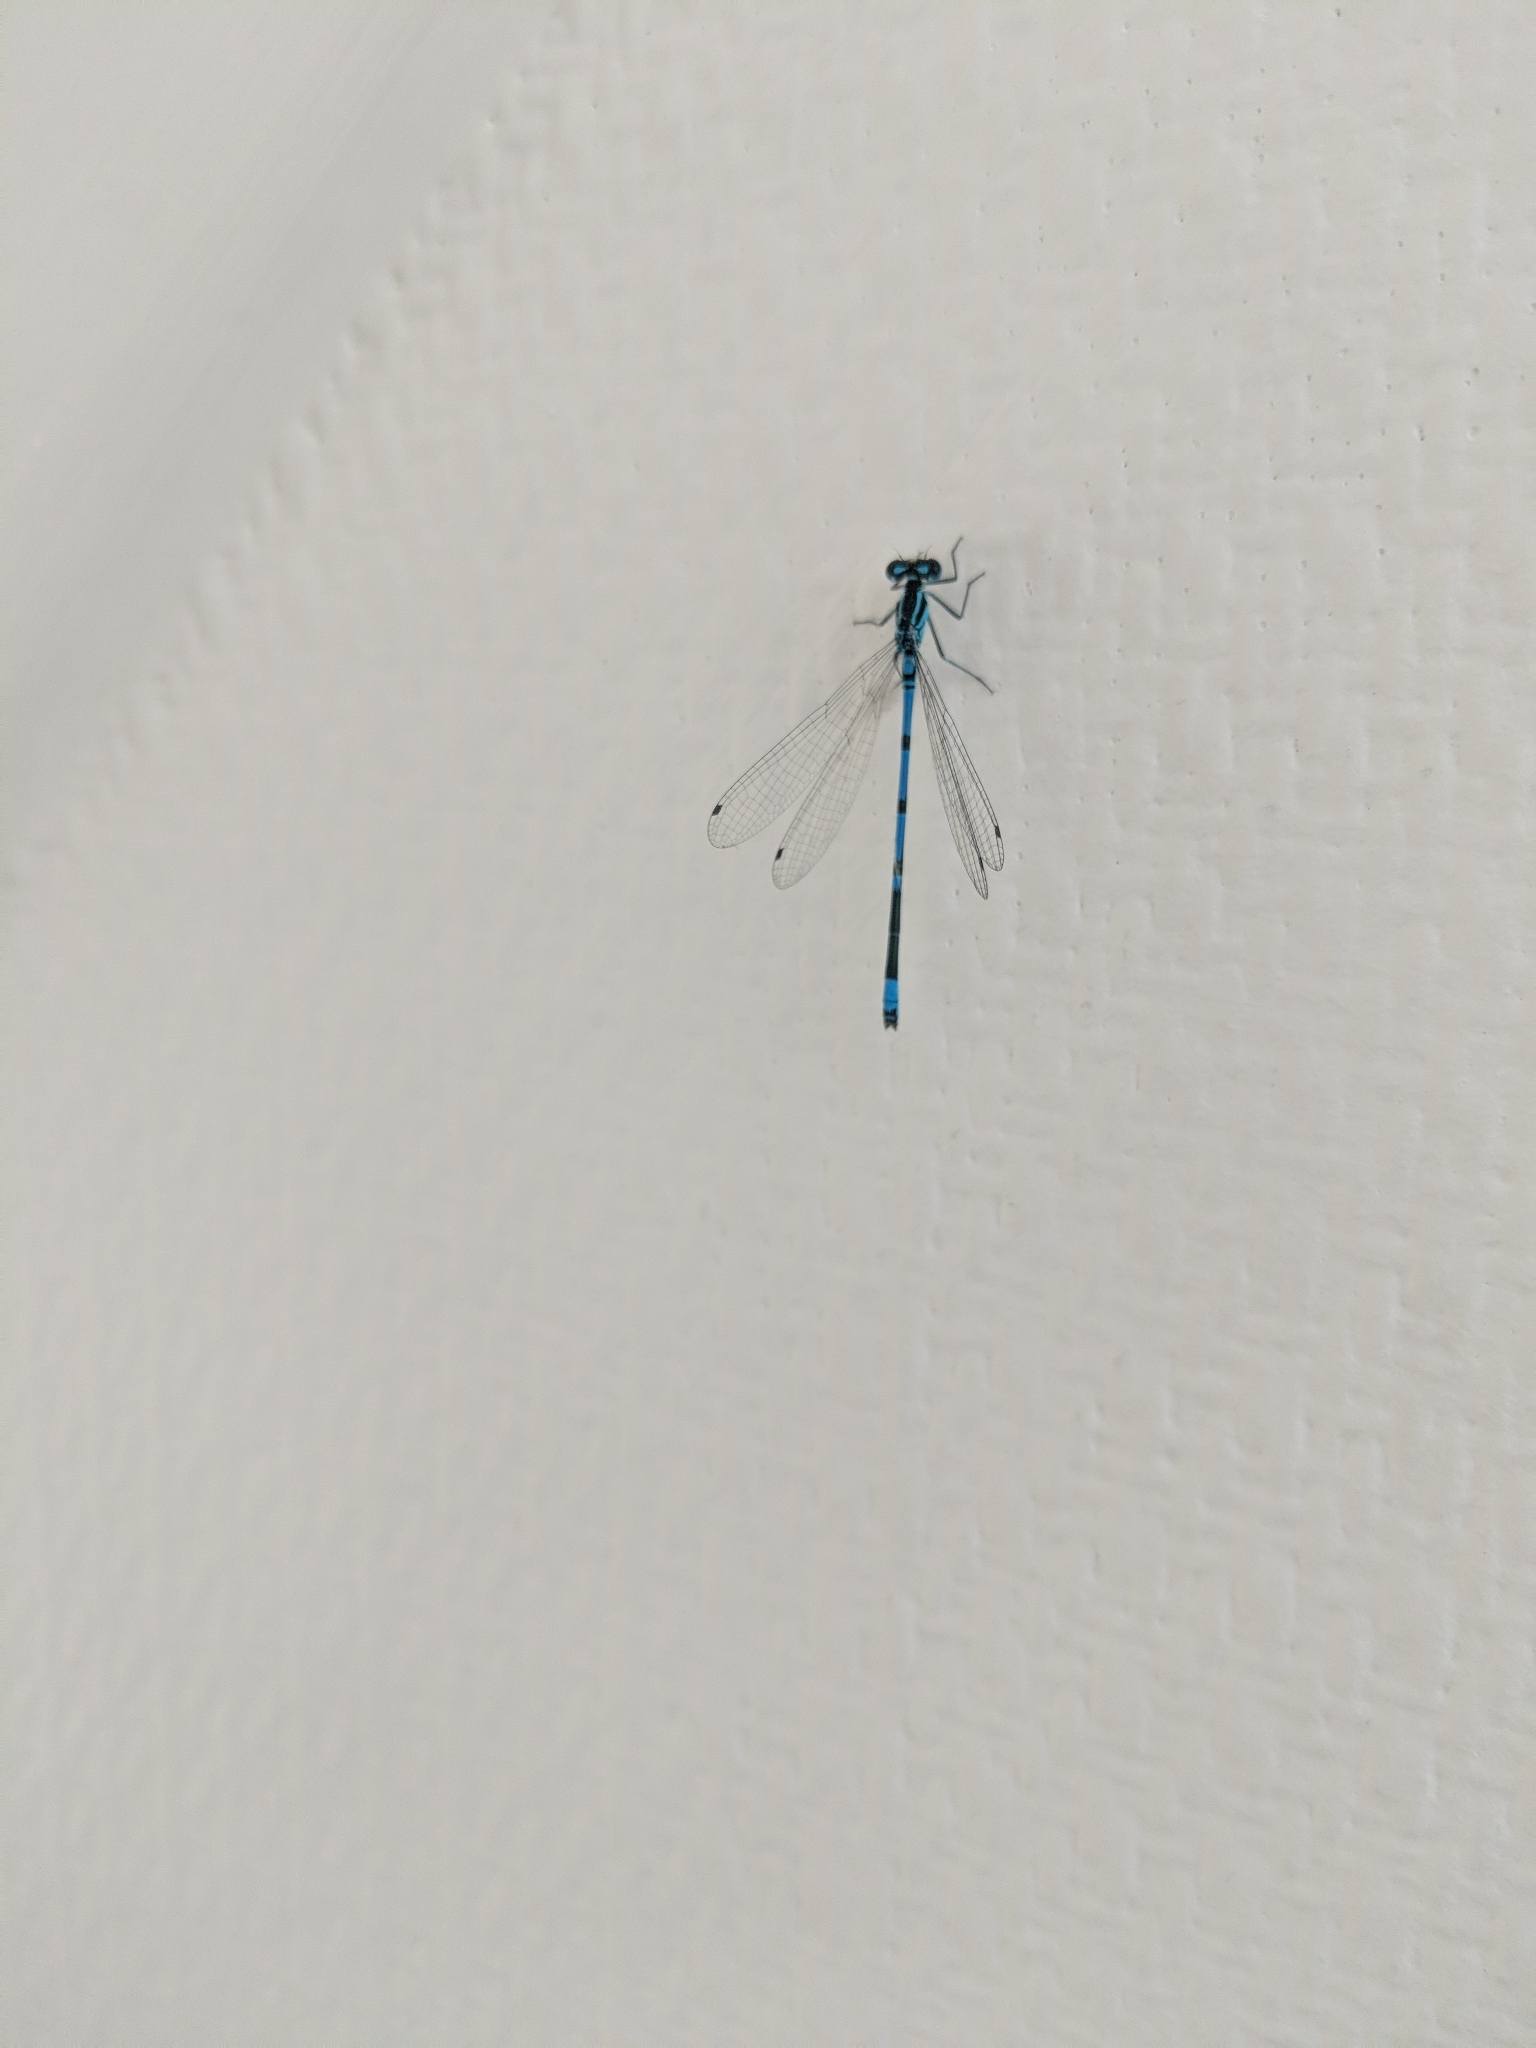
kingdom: Animalia
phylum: Arthropoda
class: Insecta
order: Odonata
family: Coenagrionidae
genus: Coenagrion
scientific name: Coenagrion puella
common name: Azure damselfly
